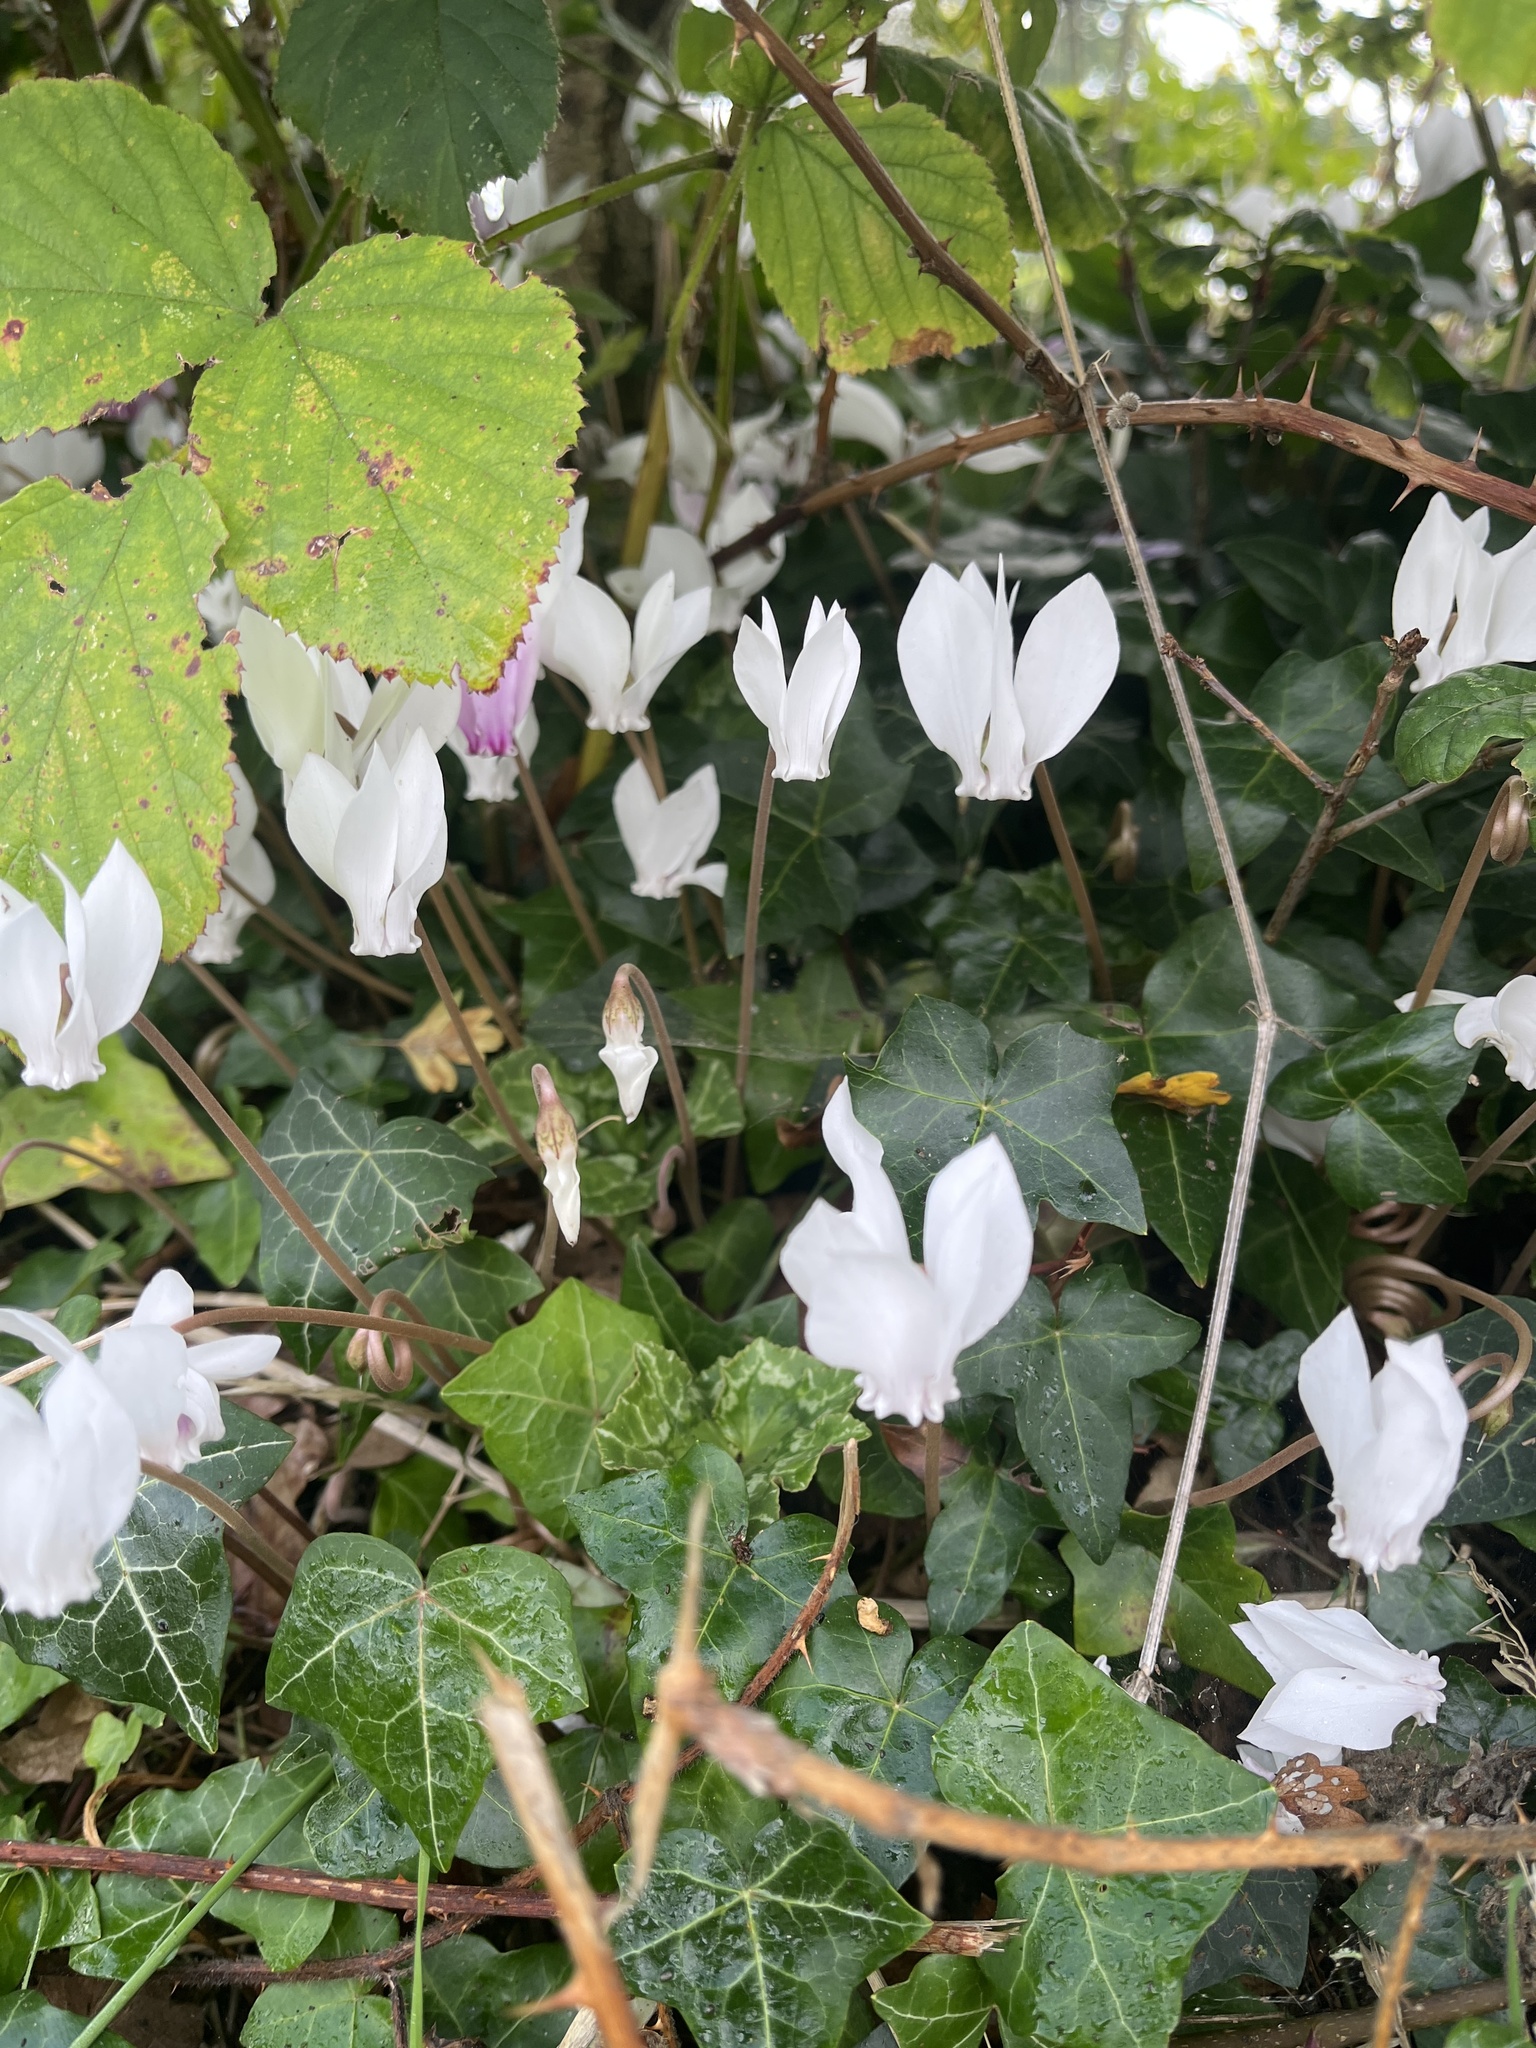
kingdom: Plantae
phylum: Tracheophyta
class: Magnoliopsida
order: Ericales
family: Primulaceae
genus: Cyclamen
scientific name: Cyclamen hederifolium
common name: Sowbread
